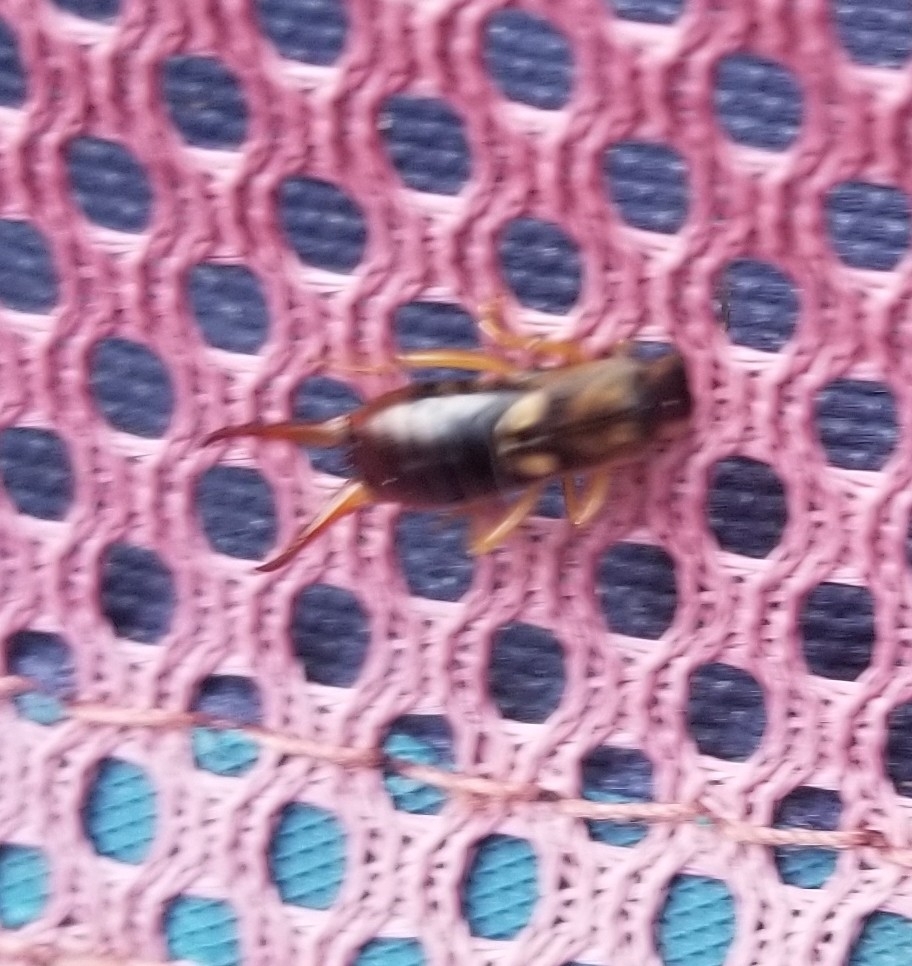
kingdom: Animalia
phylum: Arthropoda
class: Insecta
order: Dermaptera
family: Forficulidae
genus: Forficula
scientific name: Forficula
